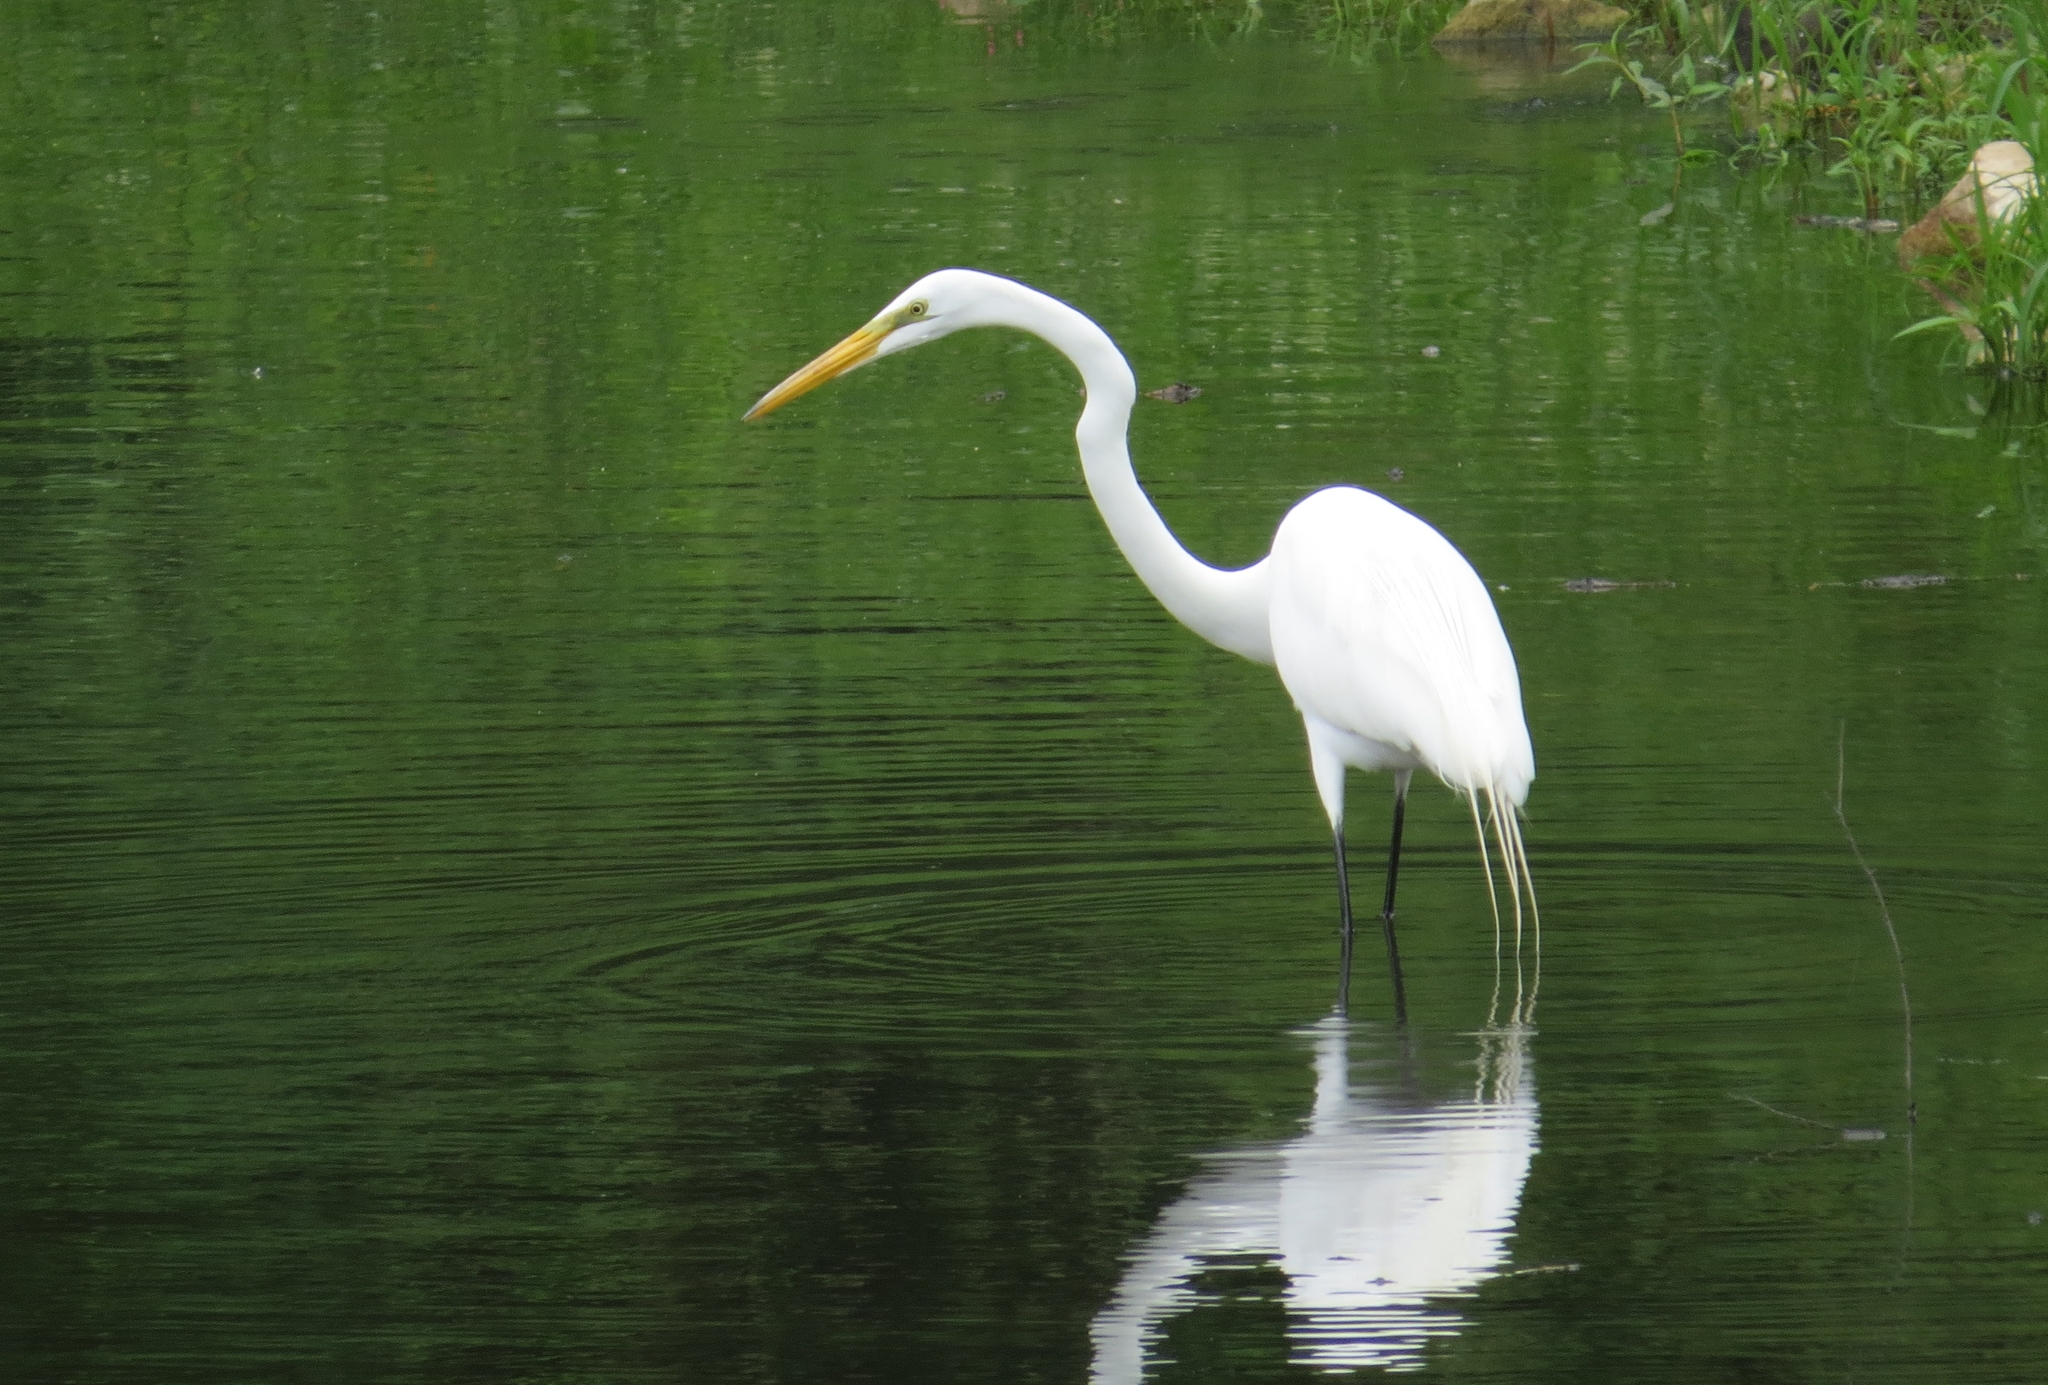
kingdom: Animalia
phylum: Chordata
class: Aves
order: Pelecaniformes
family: Ardeidae
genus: Ardea
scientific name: Ardea alba
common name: Great egret
